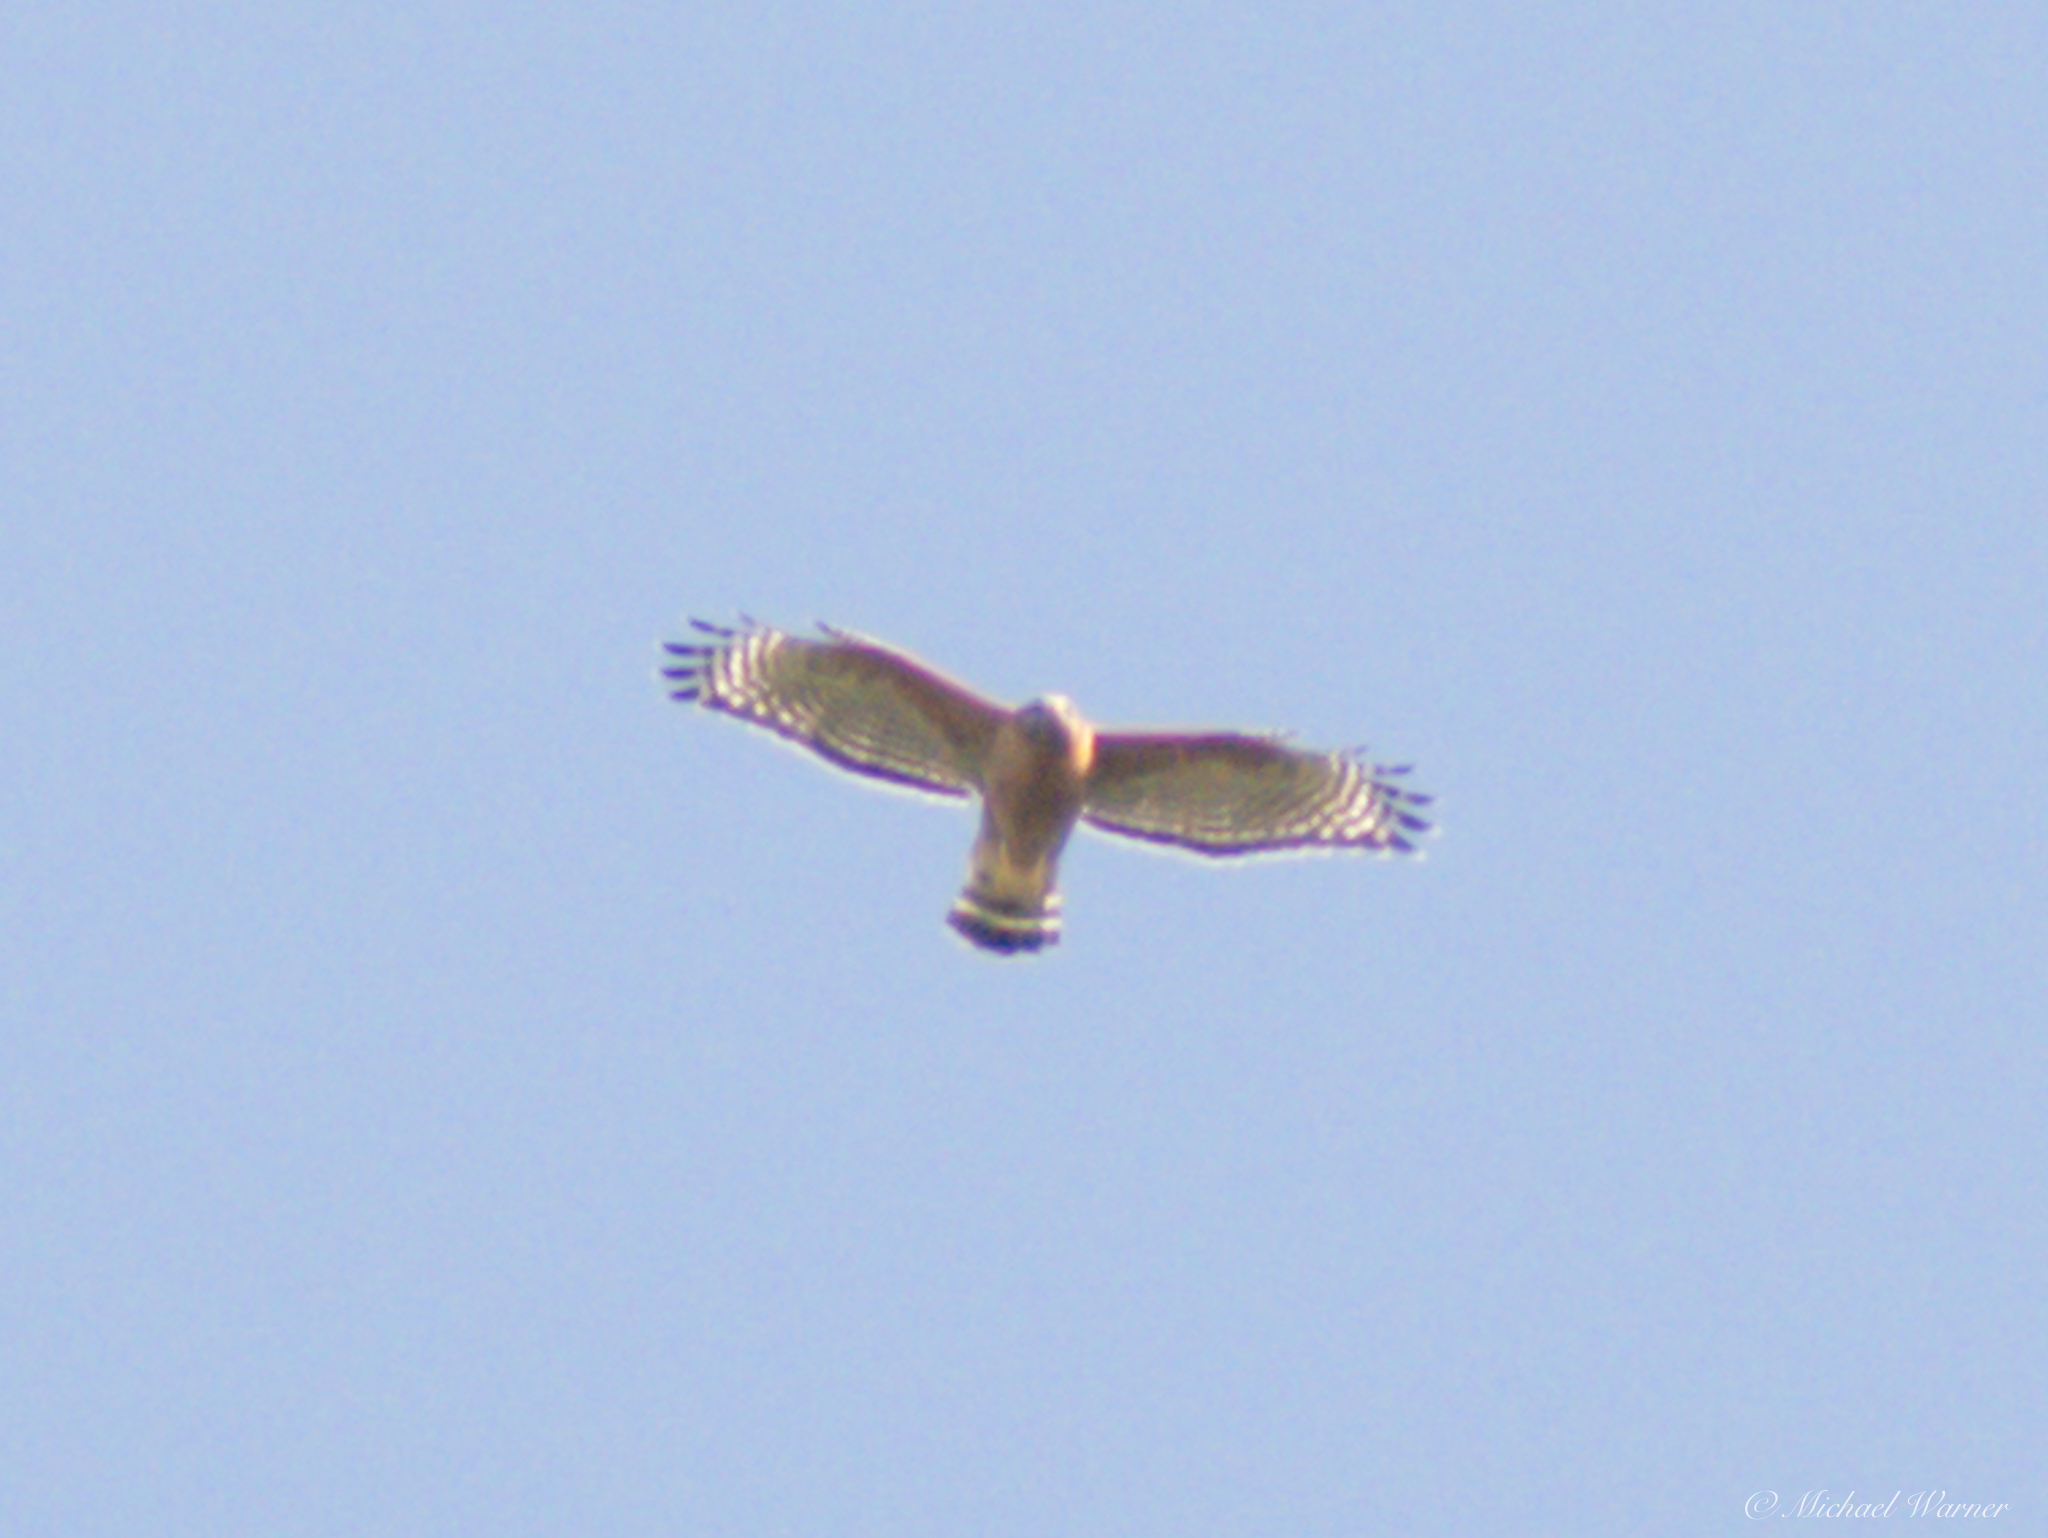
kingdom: Animalia
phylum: Chordata
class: Aves
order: Accipitriformes
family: Accipitridae
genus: Buteo
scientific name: Buteo lineatus
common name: Red-shouldered hawk
